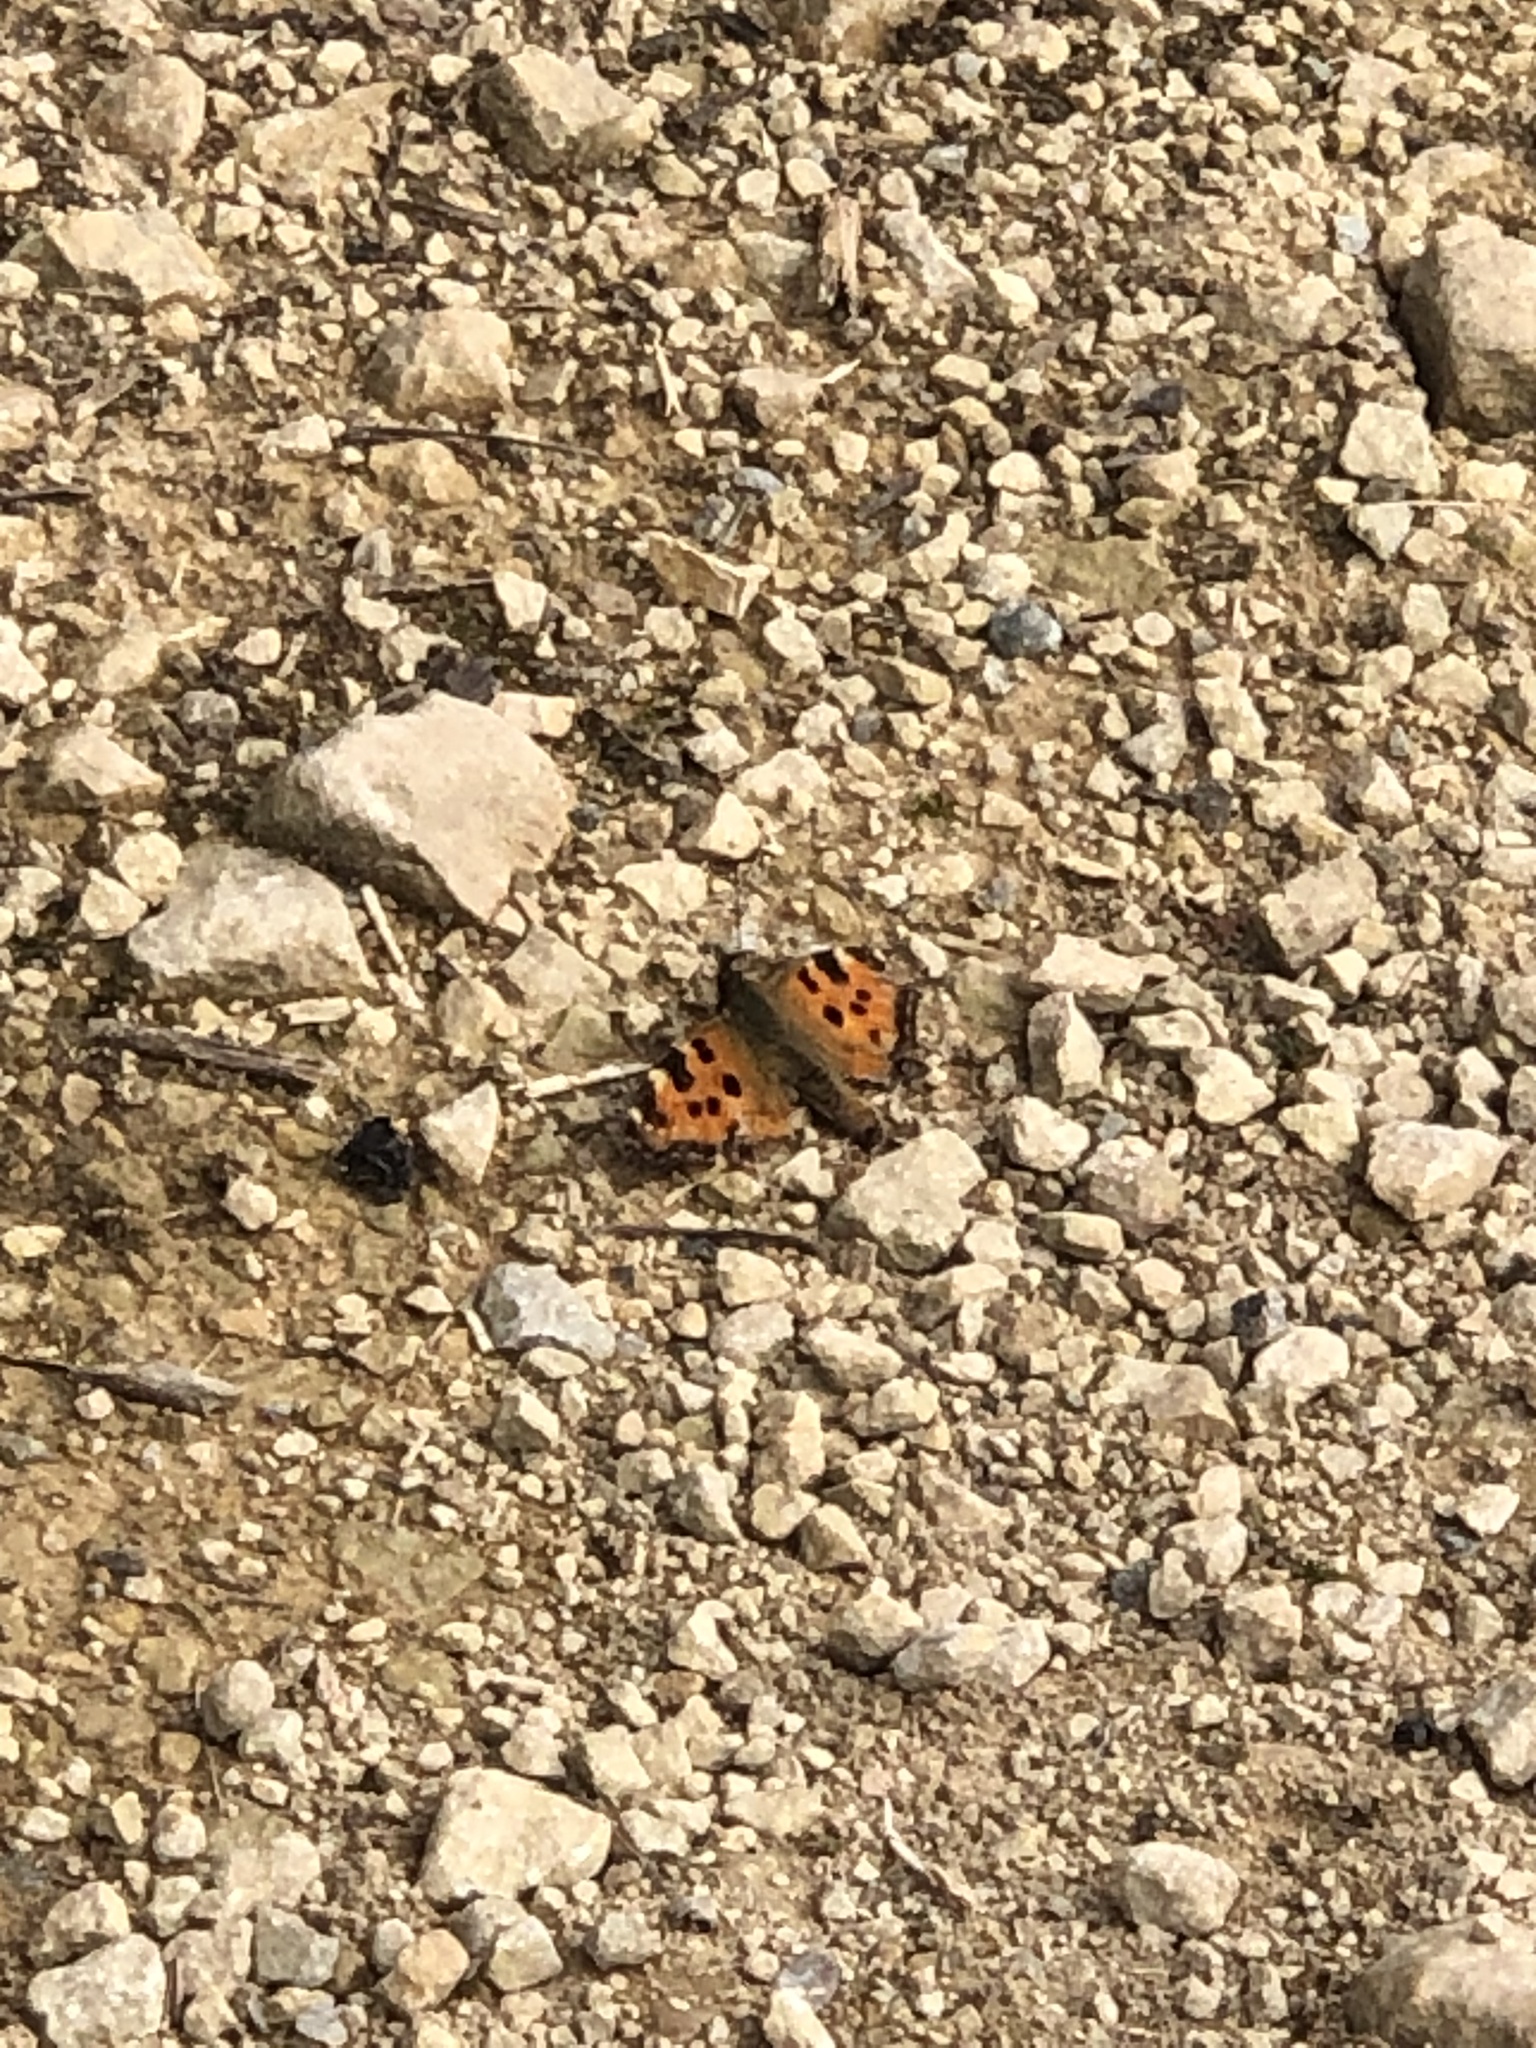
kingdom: Animalia
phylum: Arthropoda
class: Insecta
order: Lepidoptera
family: Nymphalidae
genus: Nymphalis
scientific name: Nymphalis polychloros
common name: Large tortoiseshell
